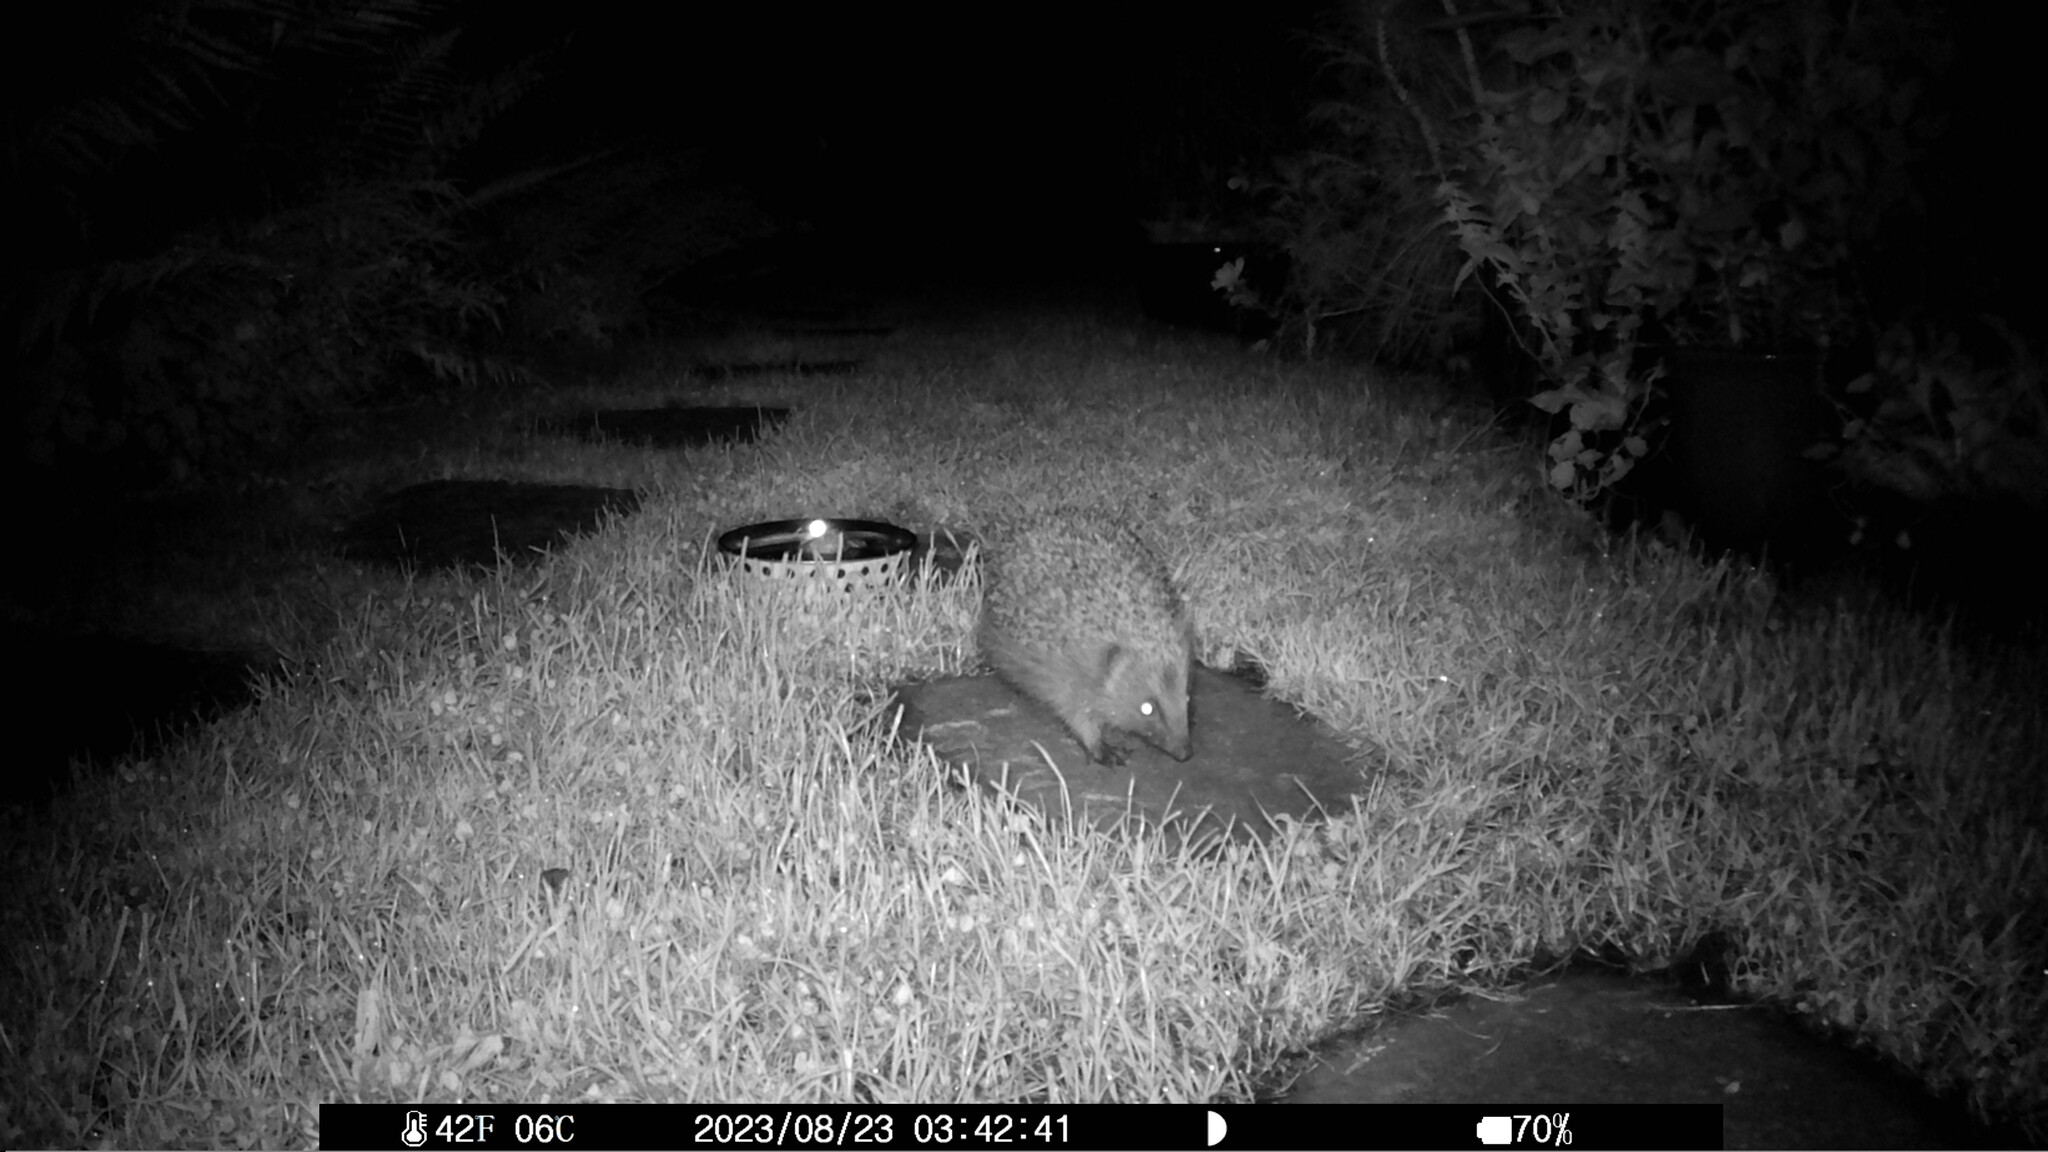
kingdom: Animalia
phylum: Chordata
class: Mammalia
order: Erinaceomorpha
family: Erinaceidae
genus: Erinaceus
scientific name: Erinaceus europaeus
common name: West european hedgehog
